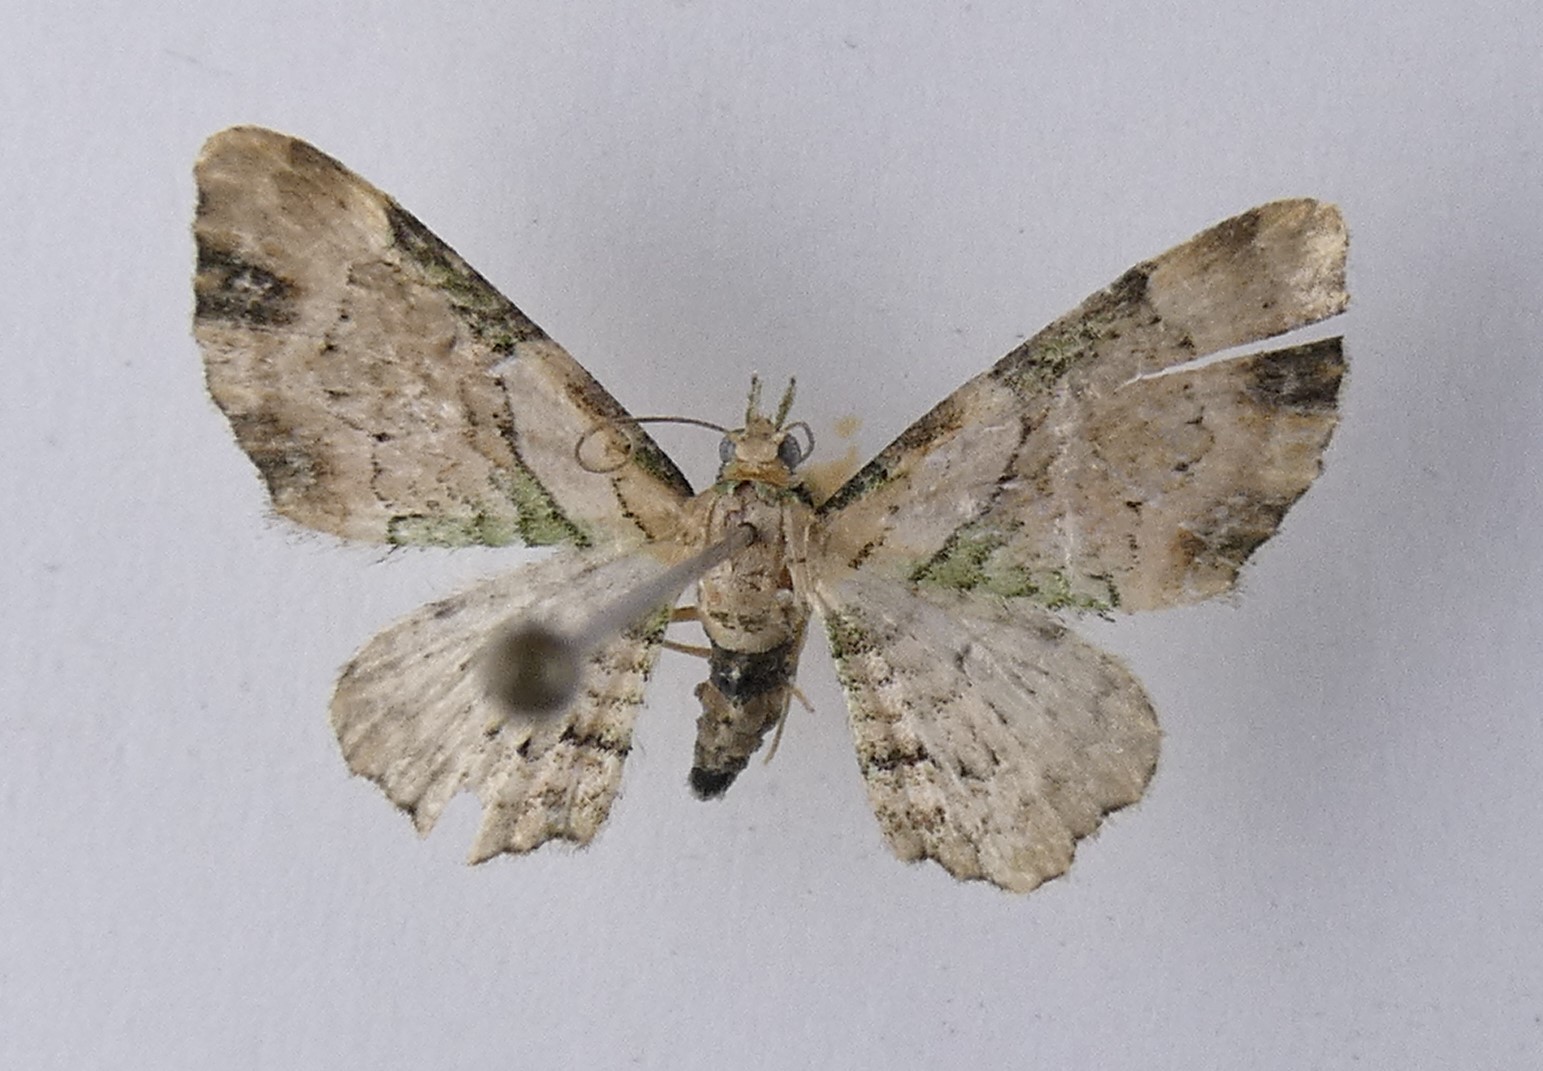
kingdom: Animalia
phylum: Arthropoda
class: Insecta
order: Lepidoptera
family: Geometridae
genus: Chloroclystis
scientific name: Chloroclystis
